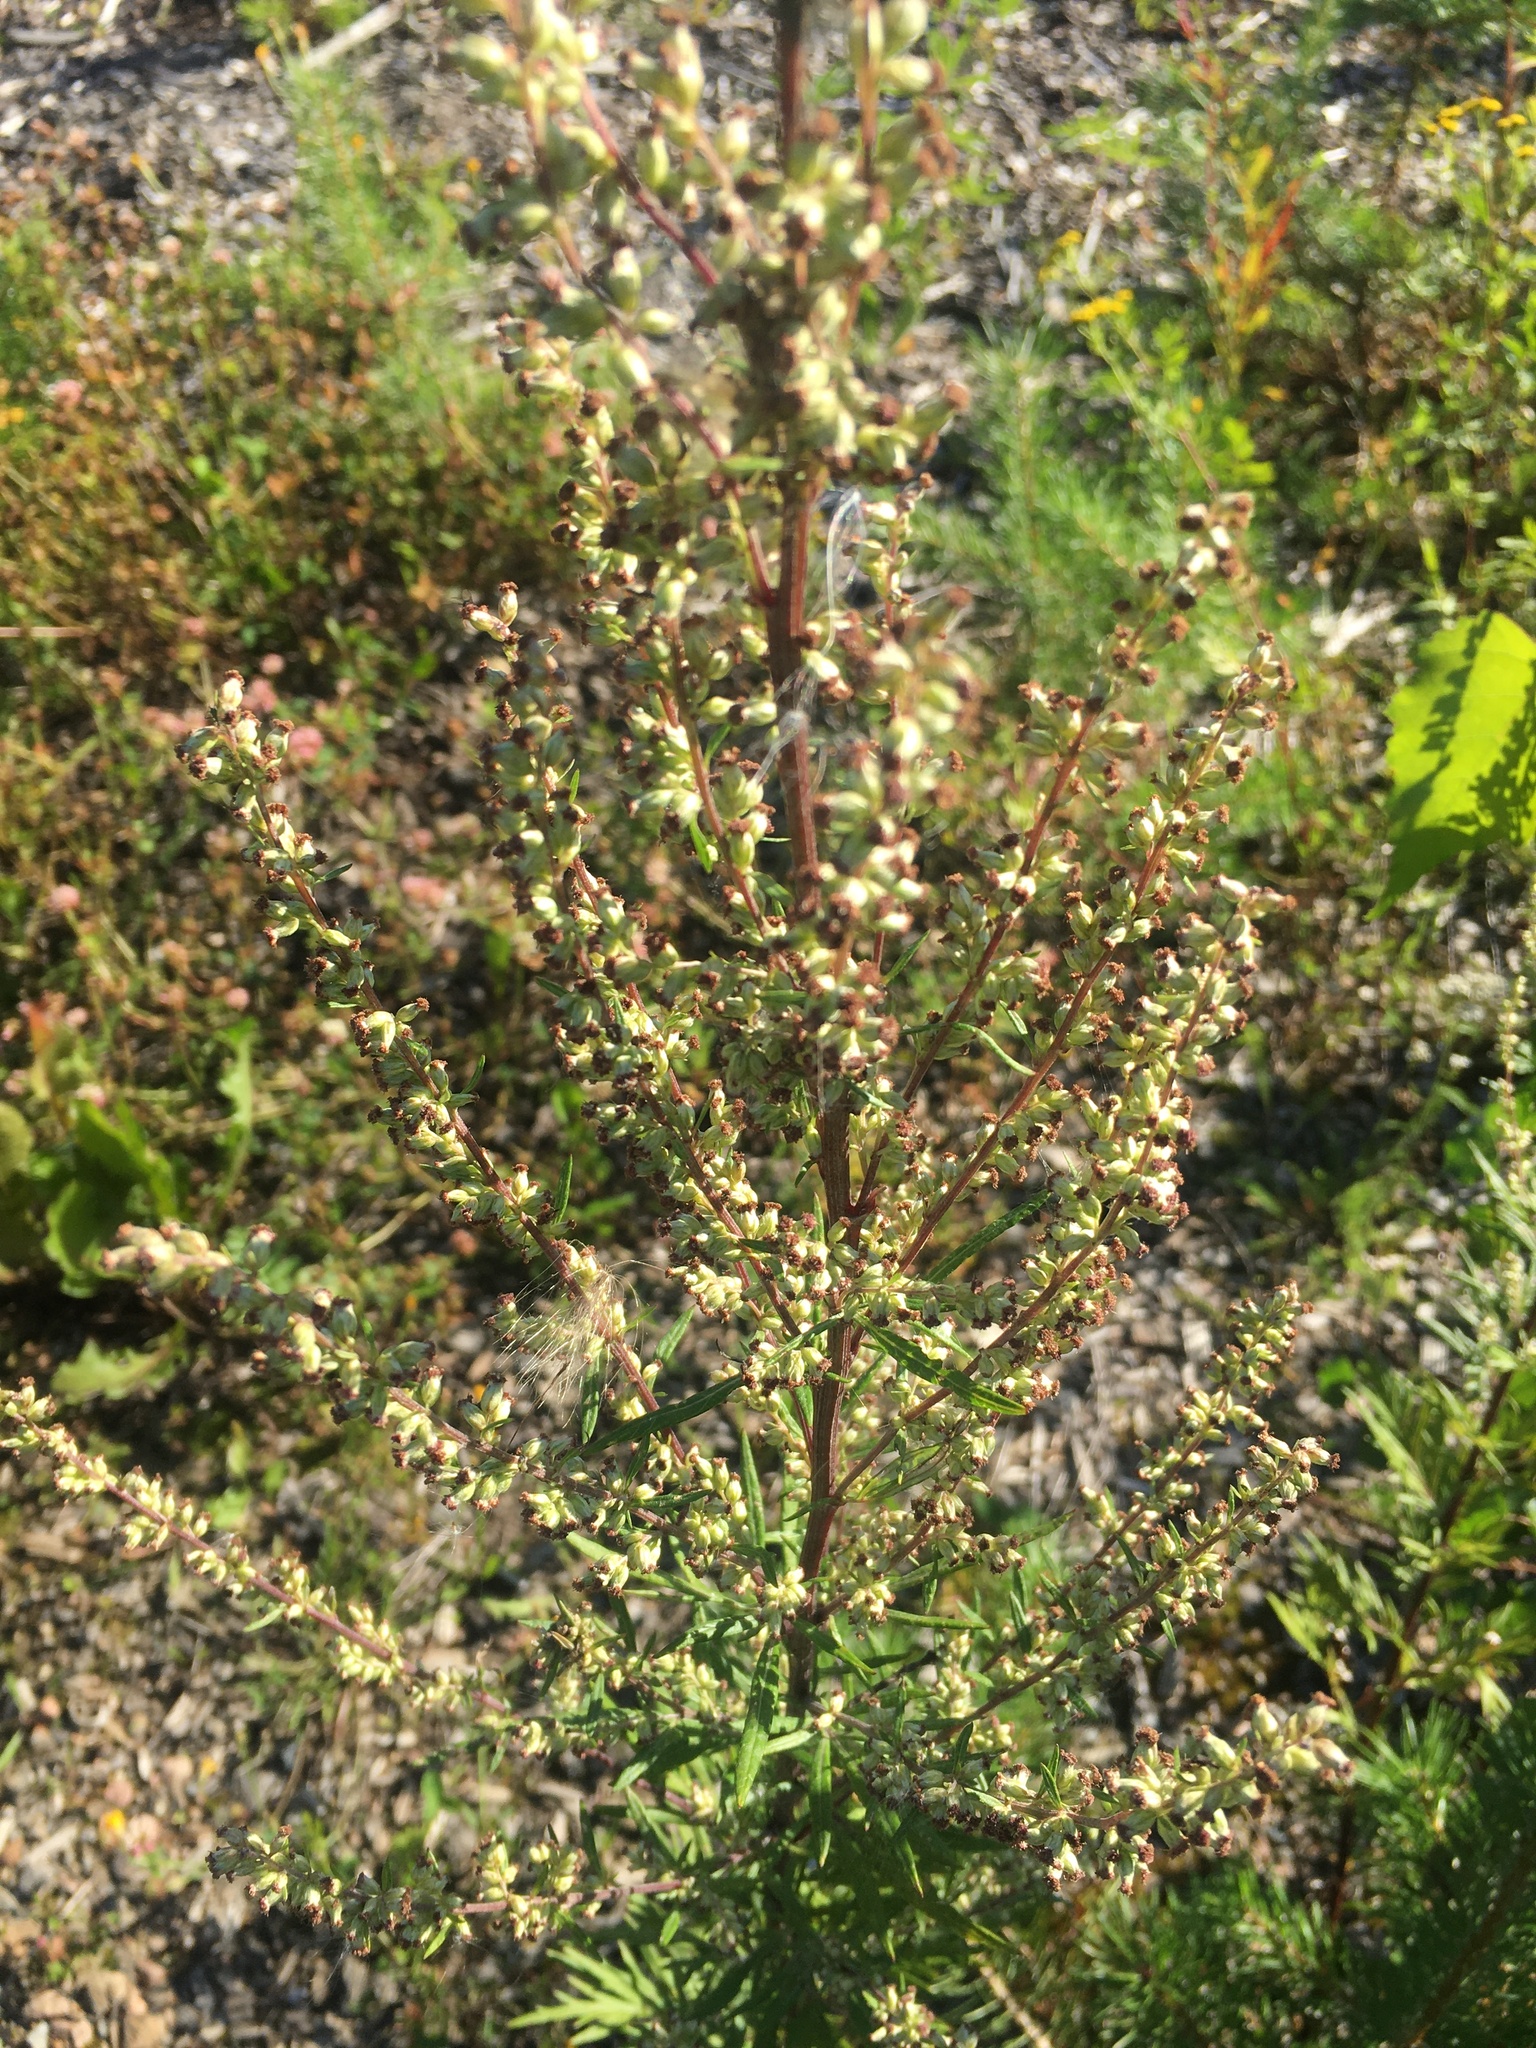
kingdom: Plantae
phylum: Tracheophyta
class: Magnoliopsida
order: Asterales
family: Asteraceae
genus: Artemisia
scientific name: Artemisia vulgaris
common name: Mugwort
